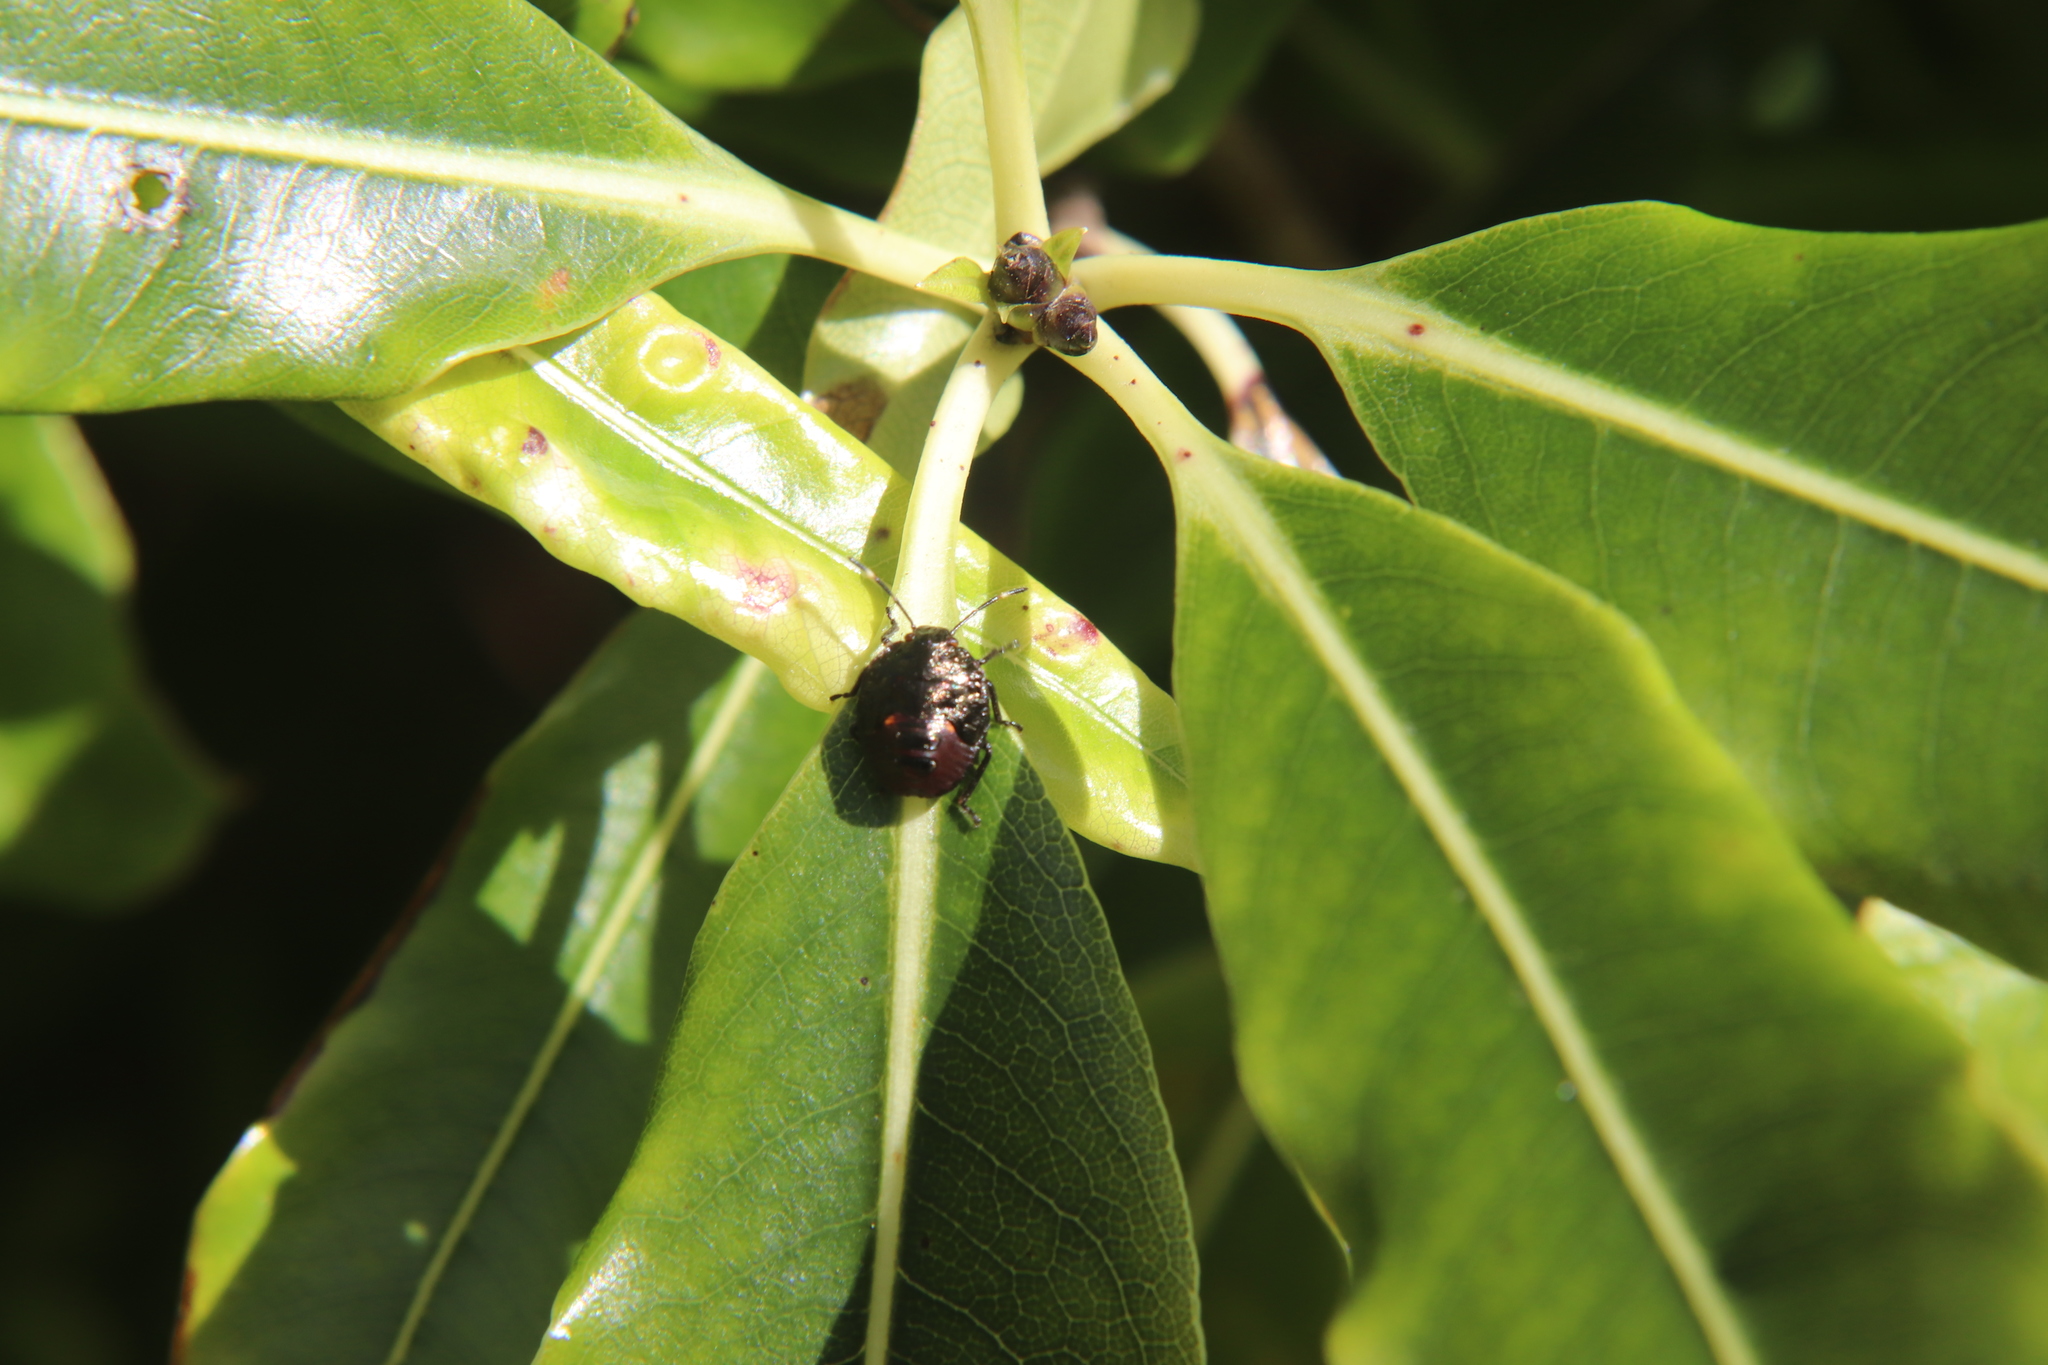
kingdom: Animalia
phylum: Arthropoda
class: Insecta
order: Hemiptera
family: Pentatomidae
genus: Monteithiella
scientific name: Monteithiella
